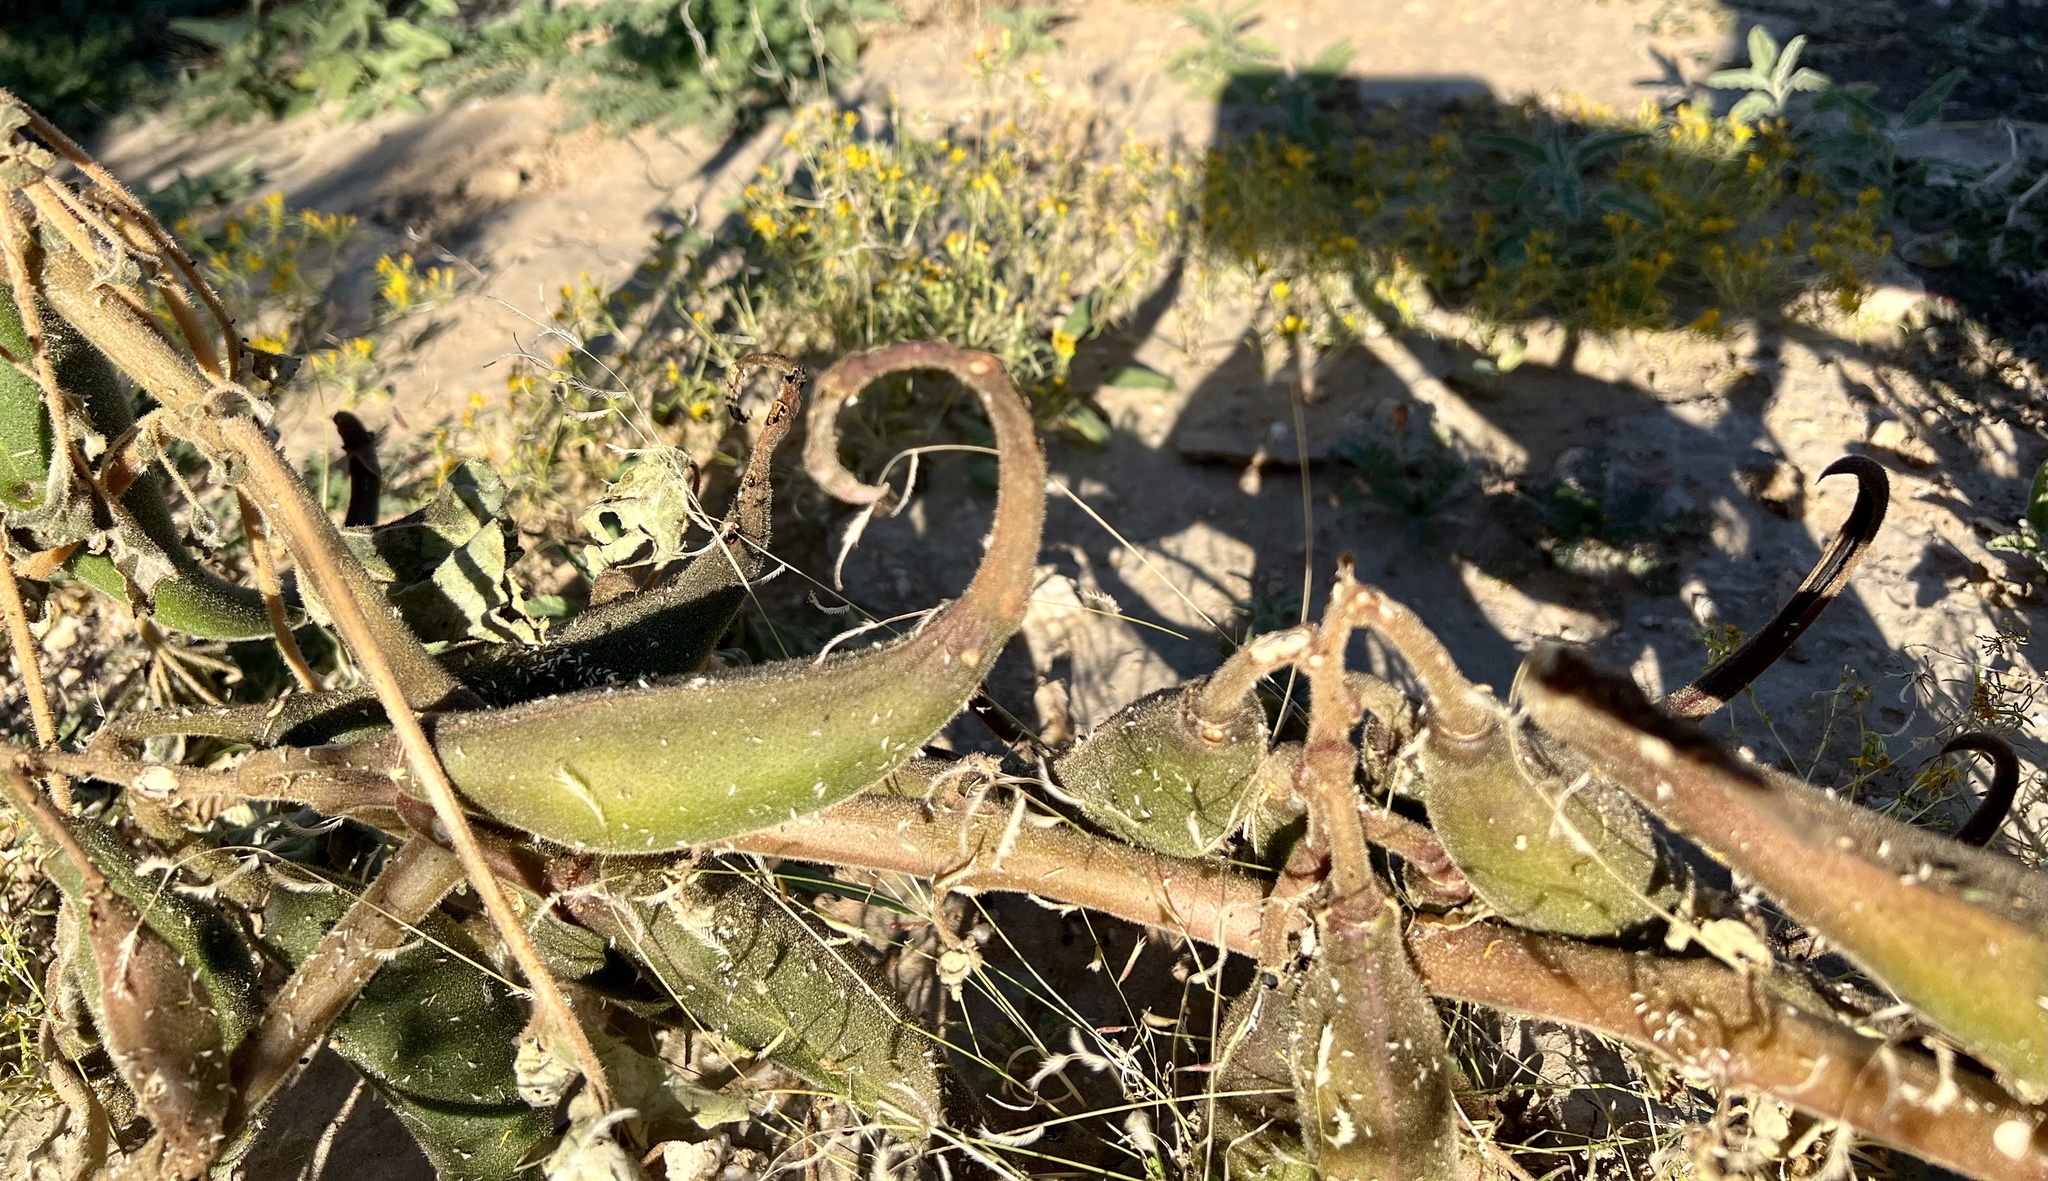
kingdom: Plantae
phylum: Tracheophyta
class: Magnoliopsida
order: Lamiales
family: Martyniaceae
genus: Proboscidea
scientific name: Proboscidea althaeifolia
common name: Desert unicorn-plant
